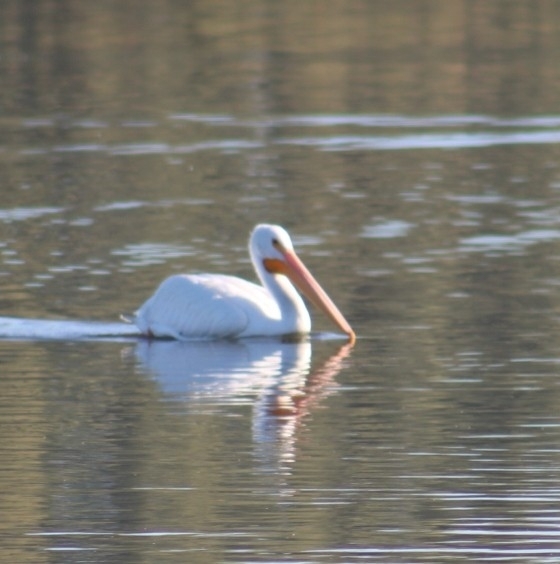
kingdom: Animalia
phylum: Chordata
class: Aves
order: Pelecaniformes
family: Pelecanidae
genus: Pelecanus
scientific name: Pelecanus erythrorhynchos
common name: American white pelican
